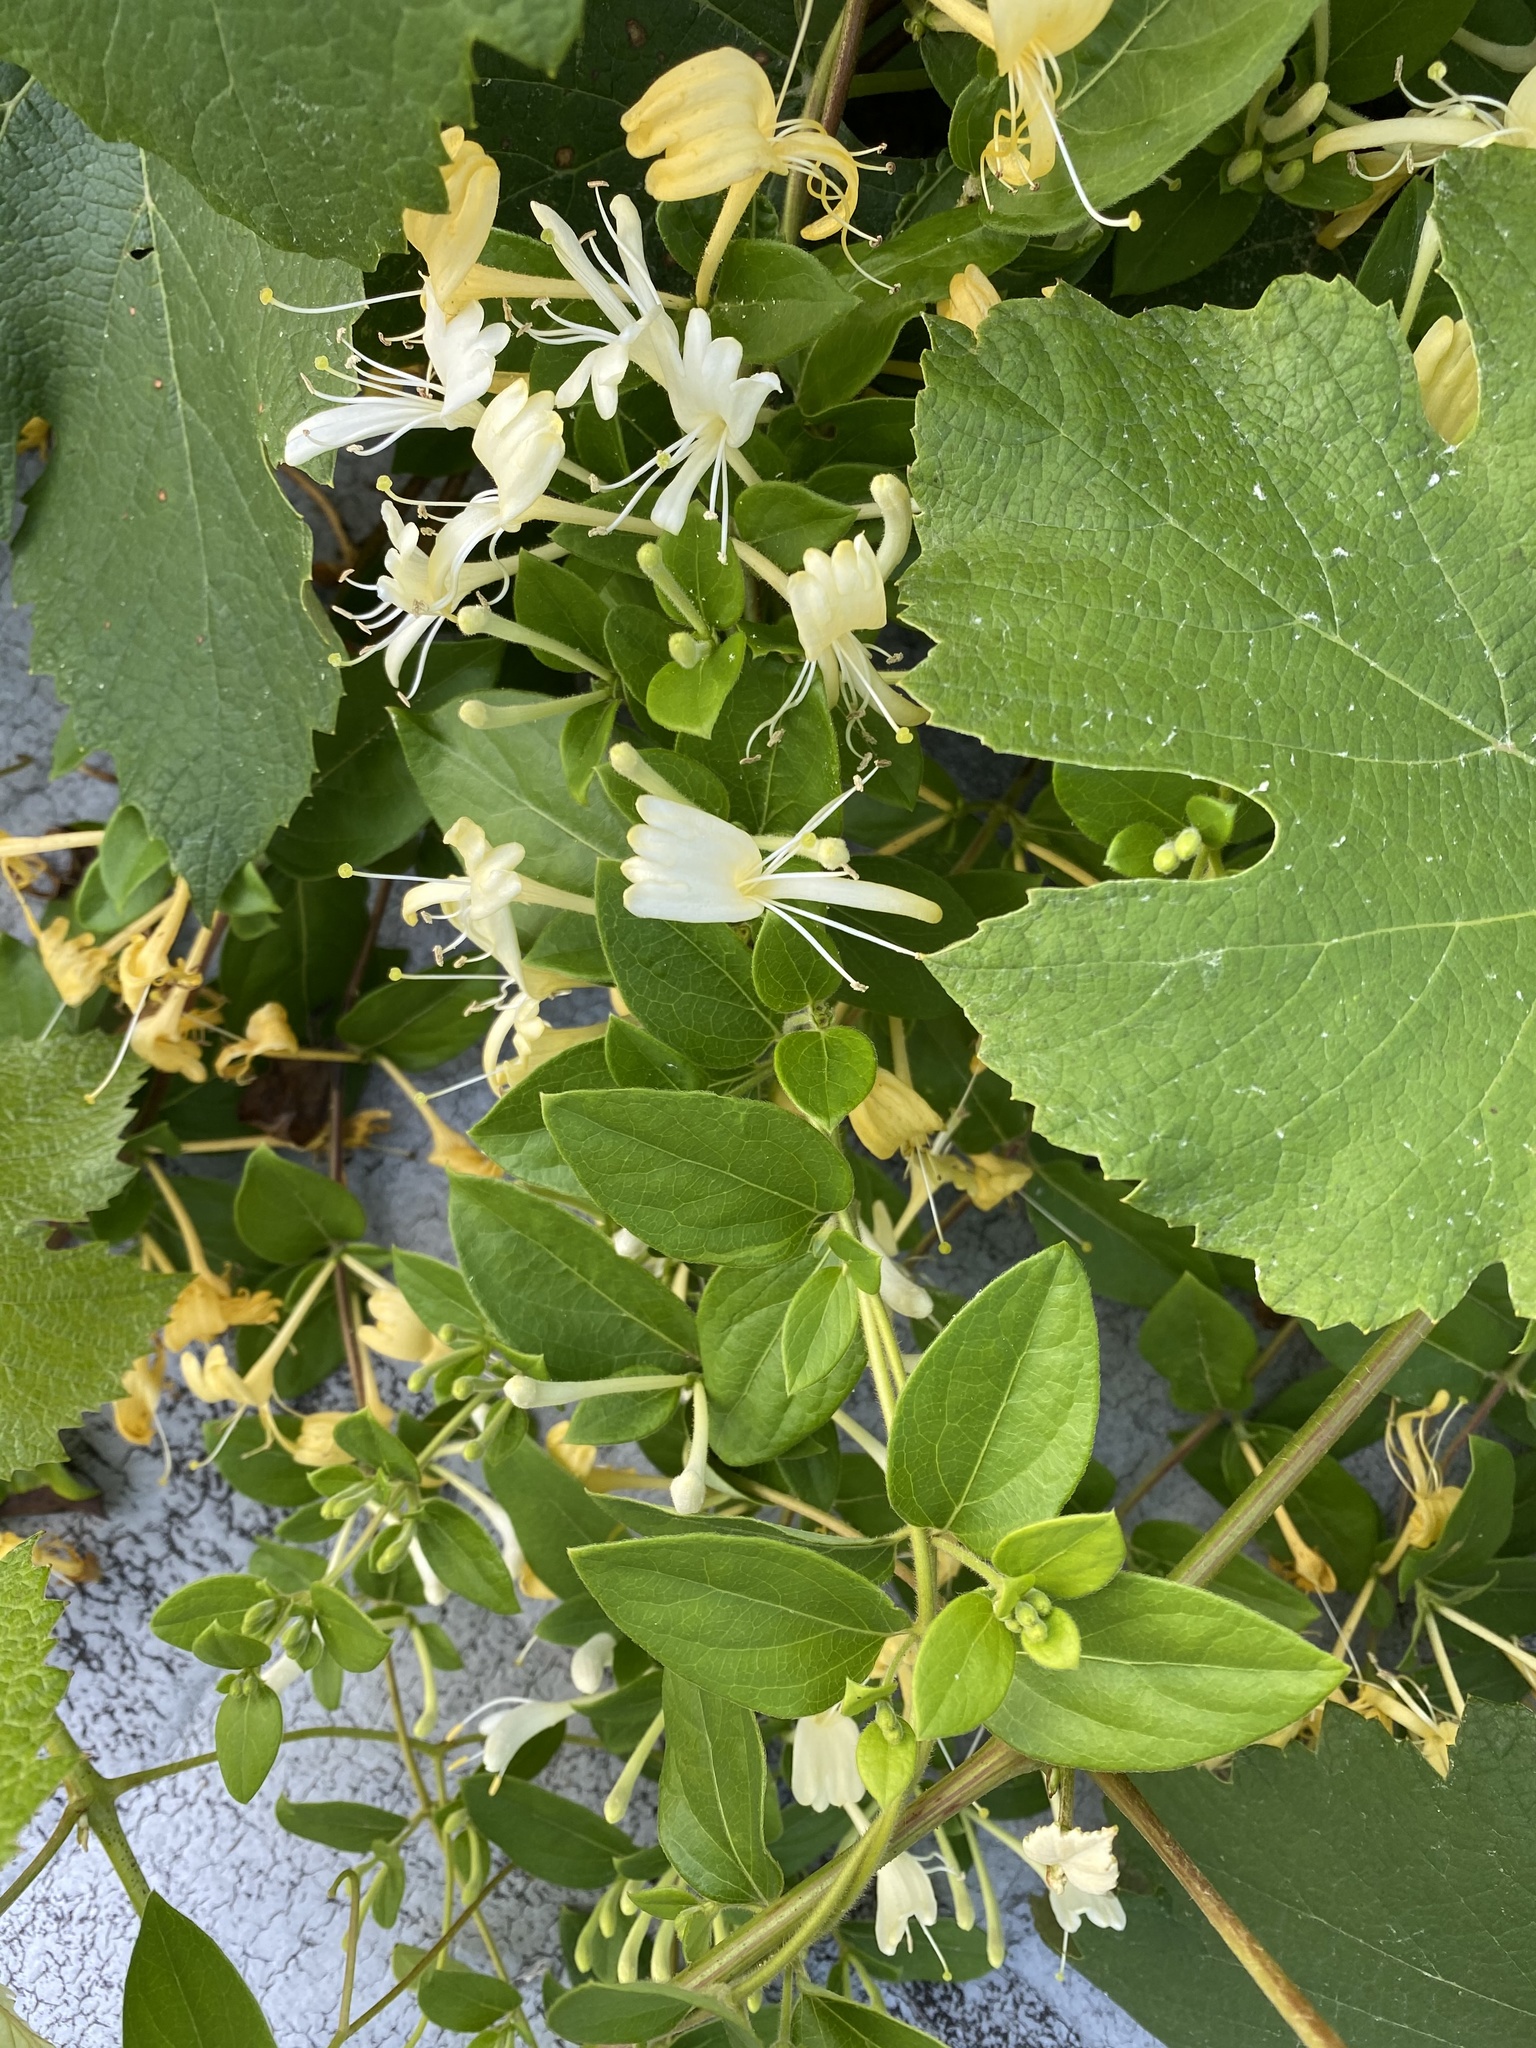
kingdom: Plantae
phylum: Tracheophyta
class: Magnoliopsida
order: Dipsacales
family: Caprifoliaceae
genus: Lonicera
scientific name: Lonicera japonica
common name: Japanese honeysuckle
